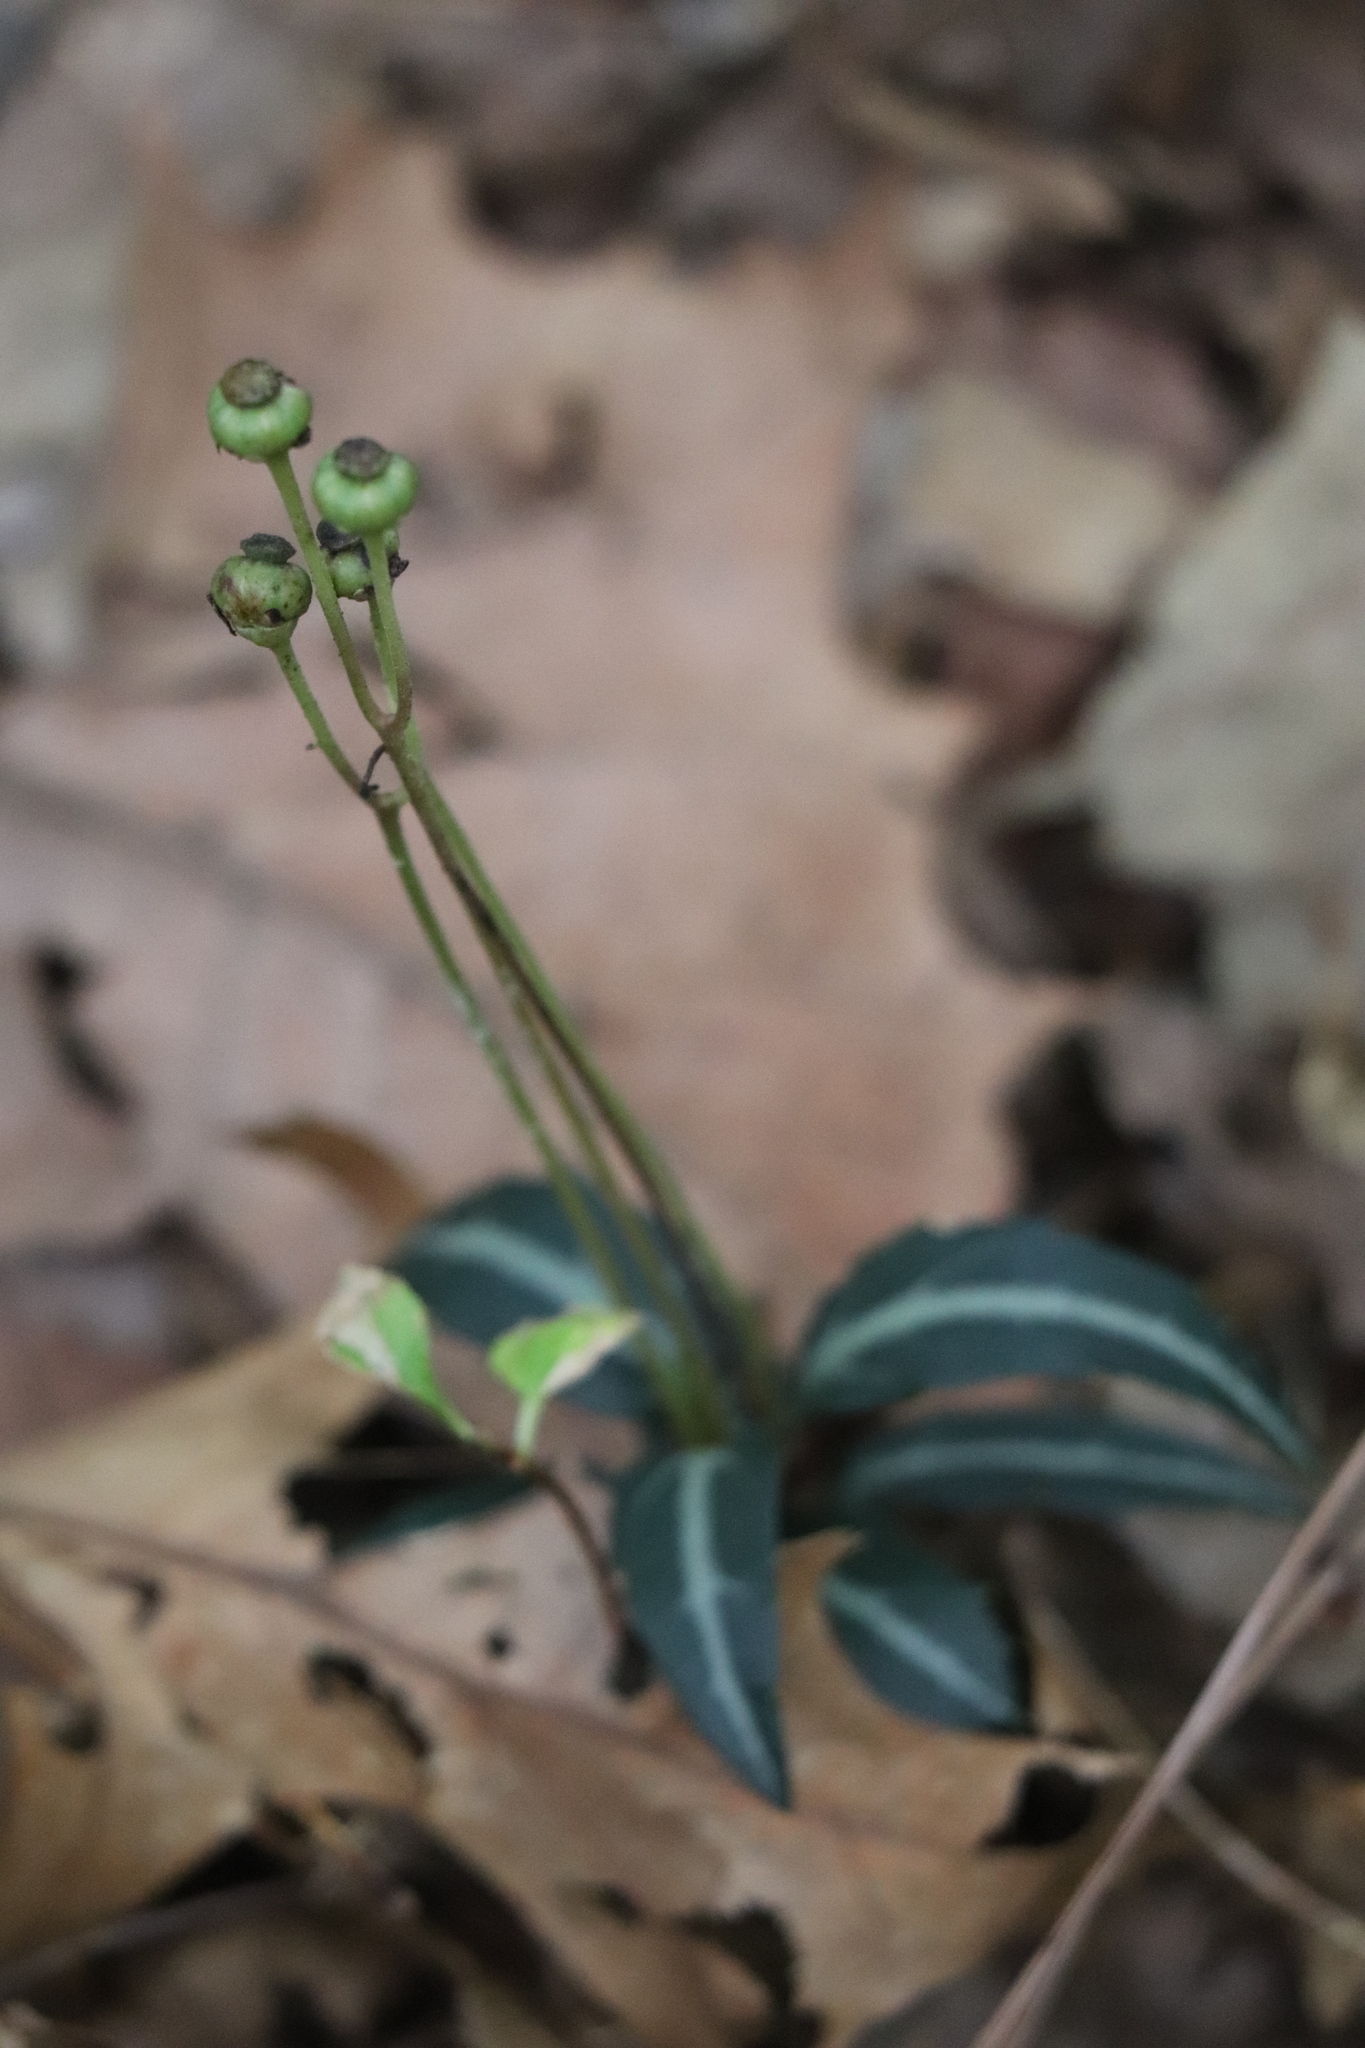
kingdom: Plantae
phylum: Tracheophyta
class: Magnoliopsida
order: Ericales
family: Ericaceae
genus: Chimaphila
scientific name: Chimaphila maculata
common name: Spotted pipsissewa
